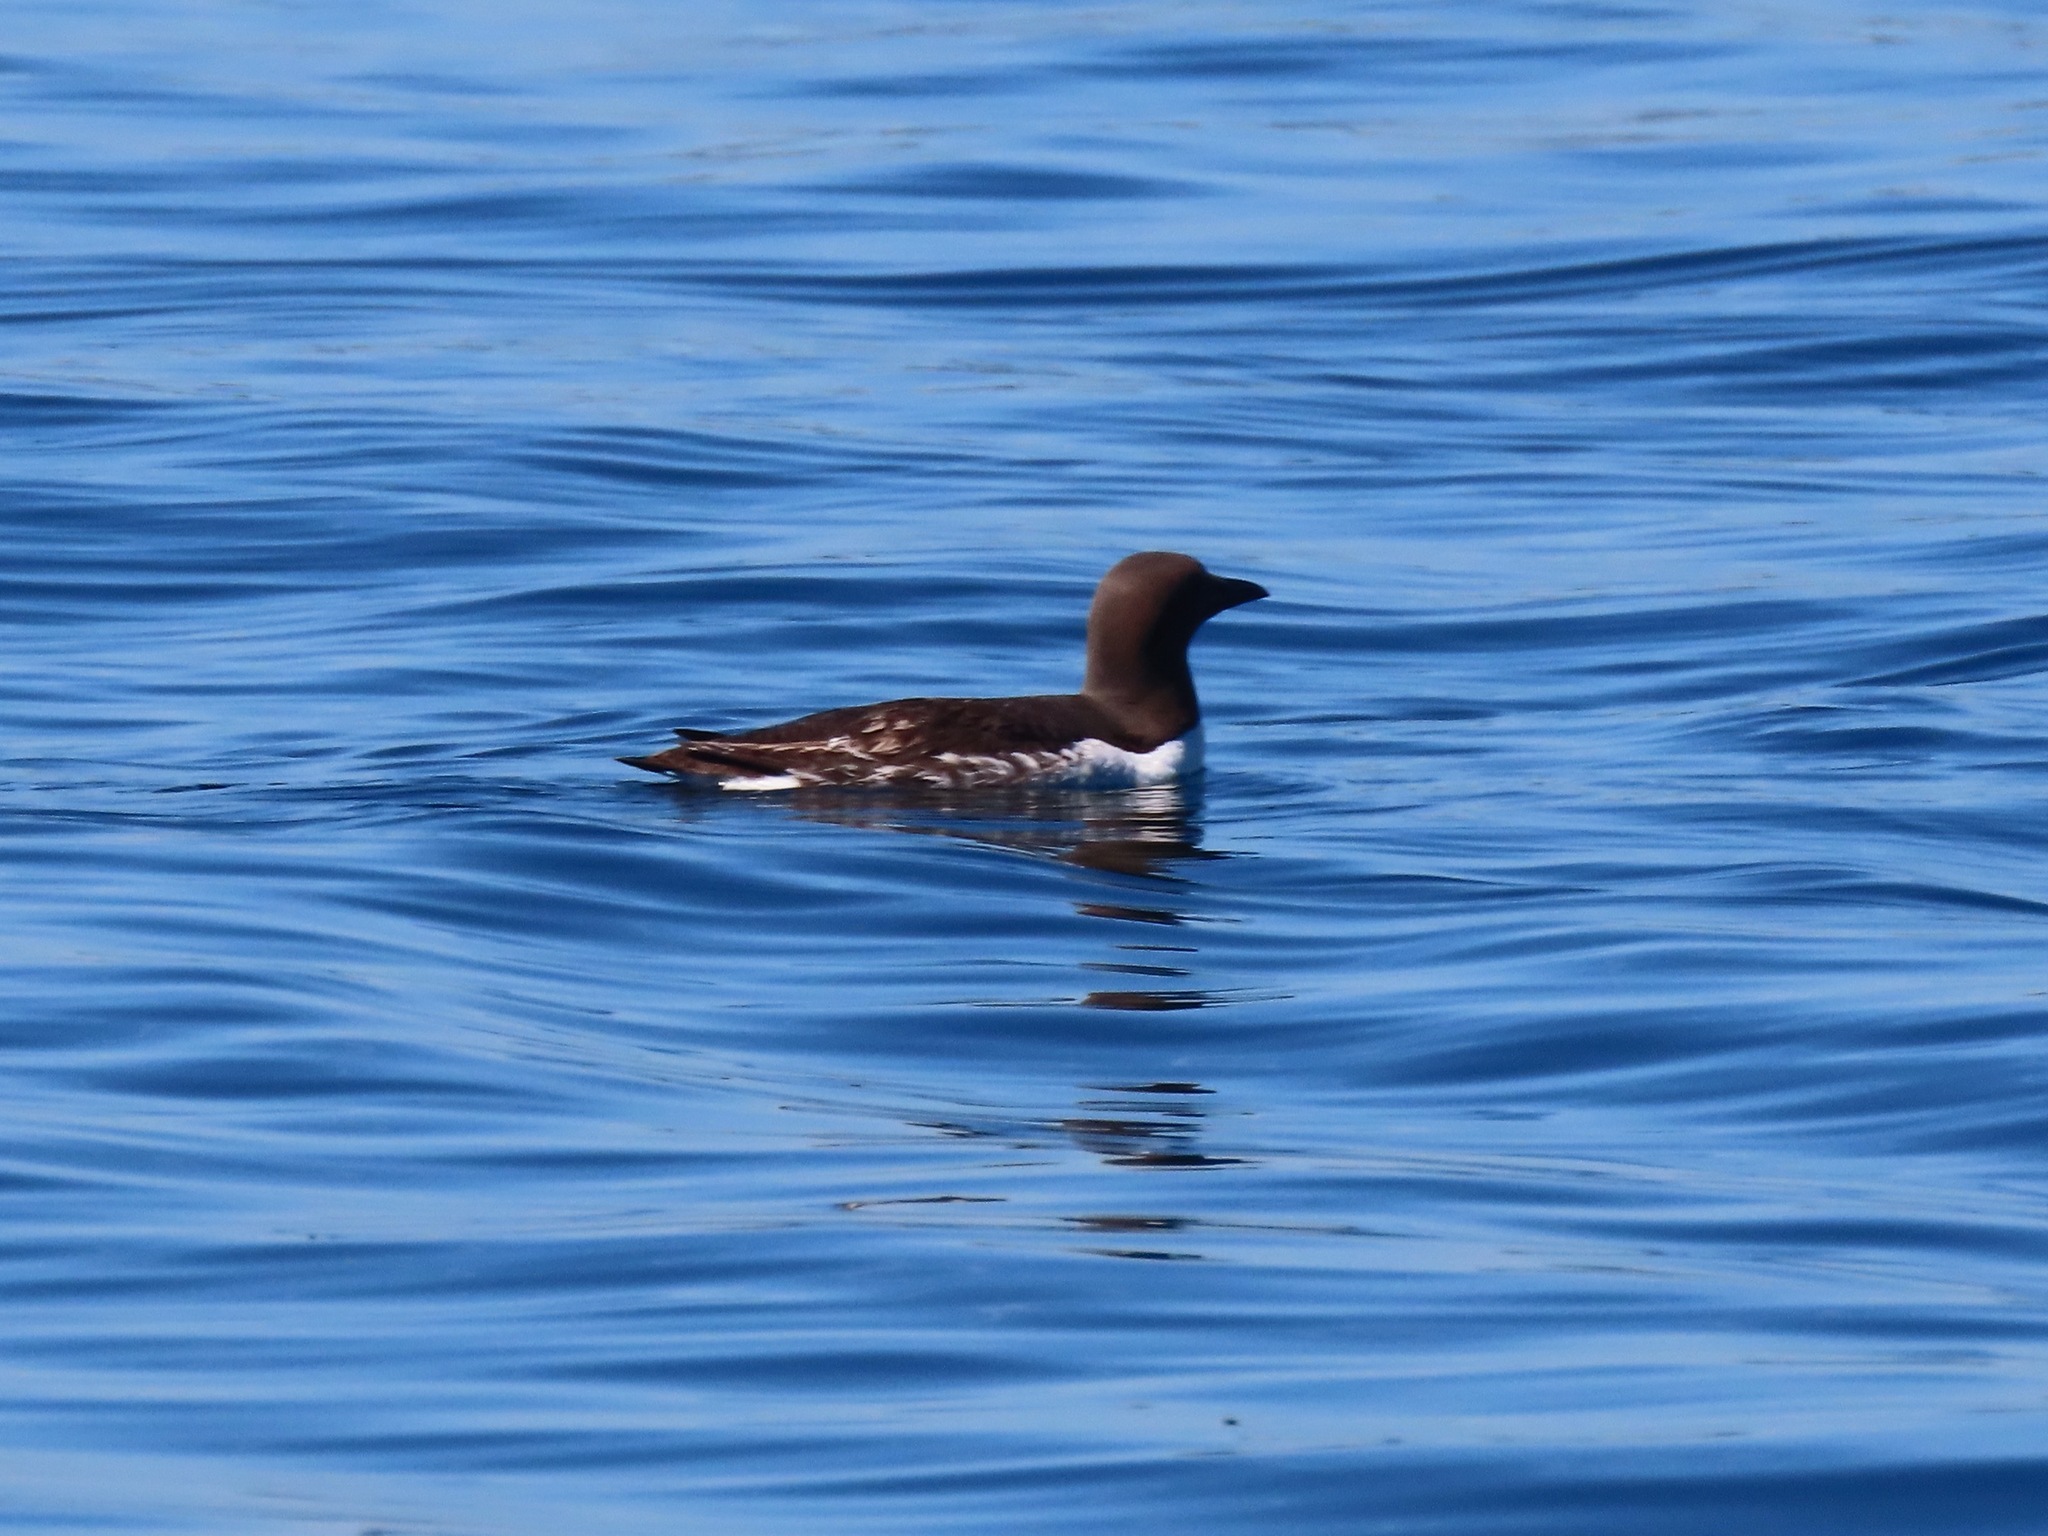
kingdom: Animalia
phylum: Chordata
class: Aves
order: Charadriiformes
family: Alcidae
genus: Uria
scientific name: Uria aalge
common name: Common murre
